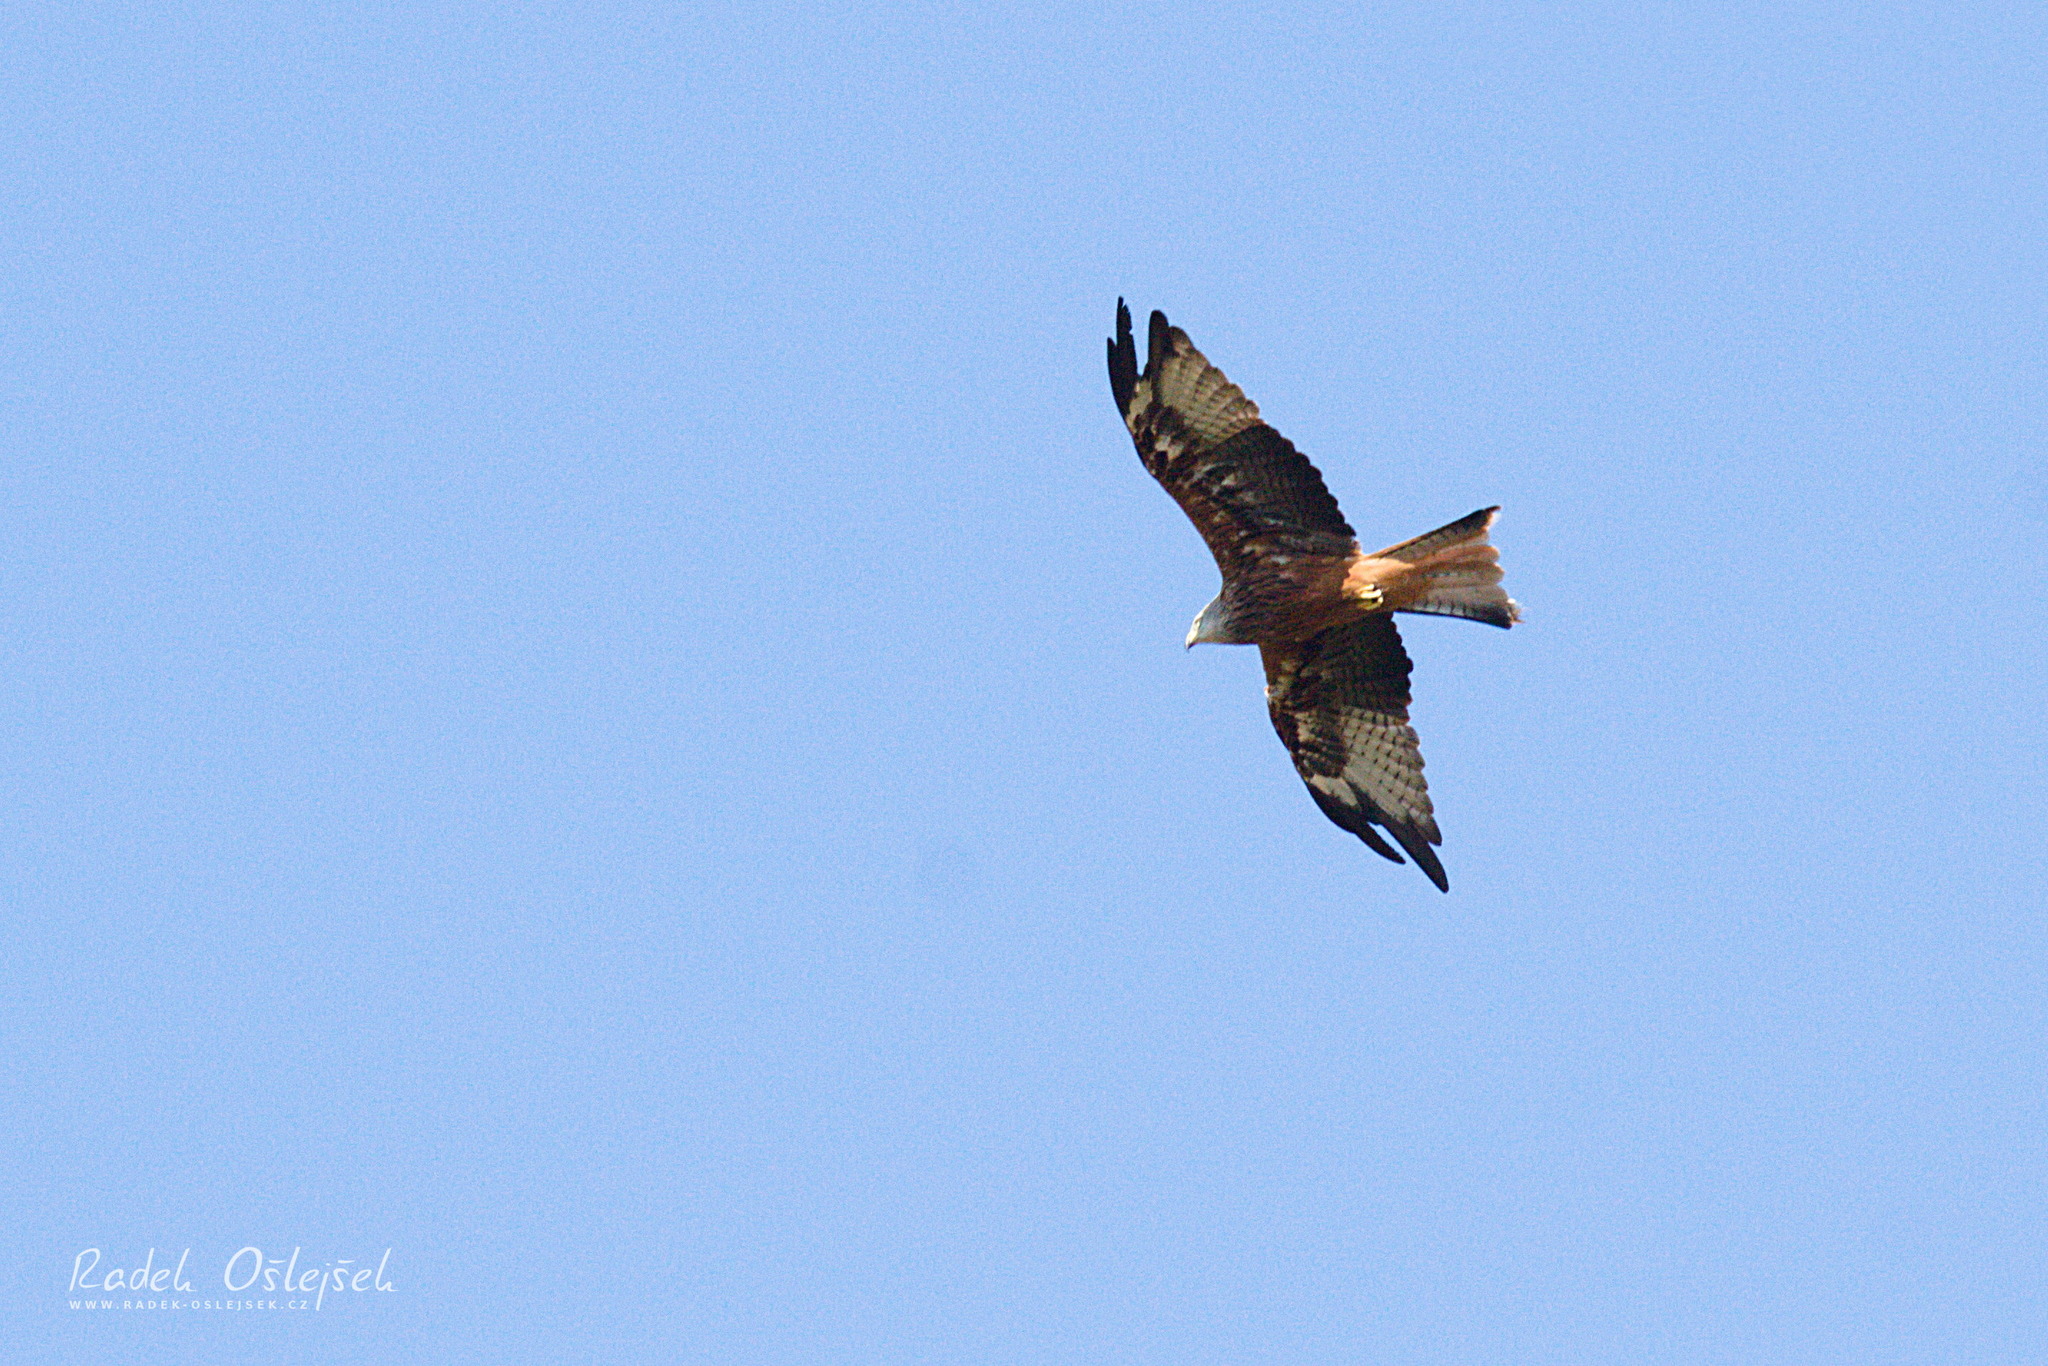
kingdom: Animalia
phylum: Chordata
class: Aves
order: Accipitriformes
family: Accipitridae
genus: Milvus
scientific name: Milvus milvus
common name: Red kite
